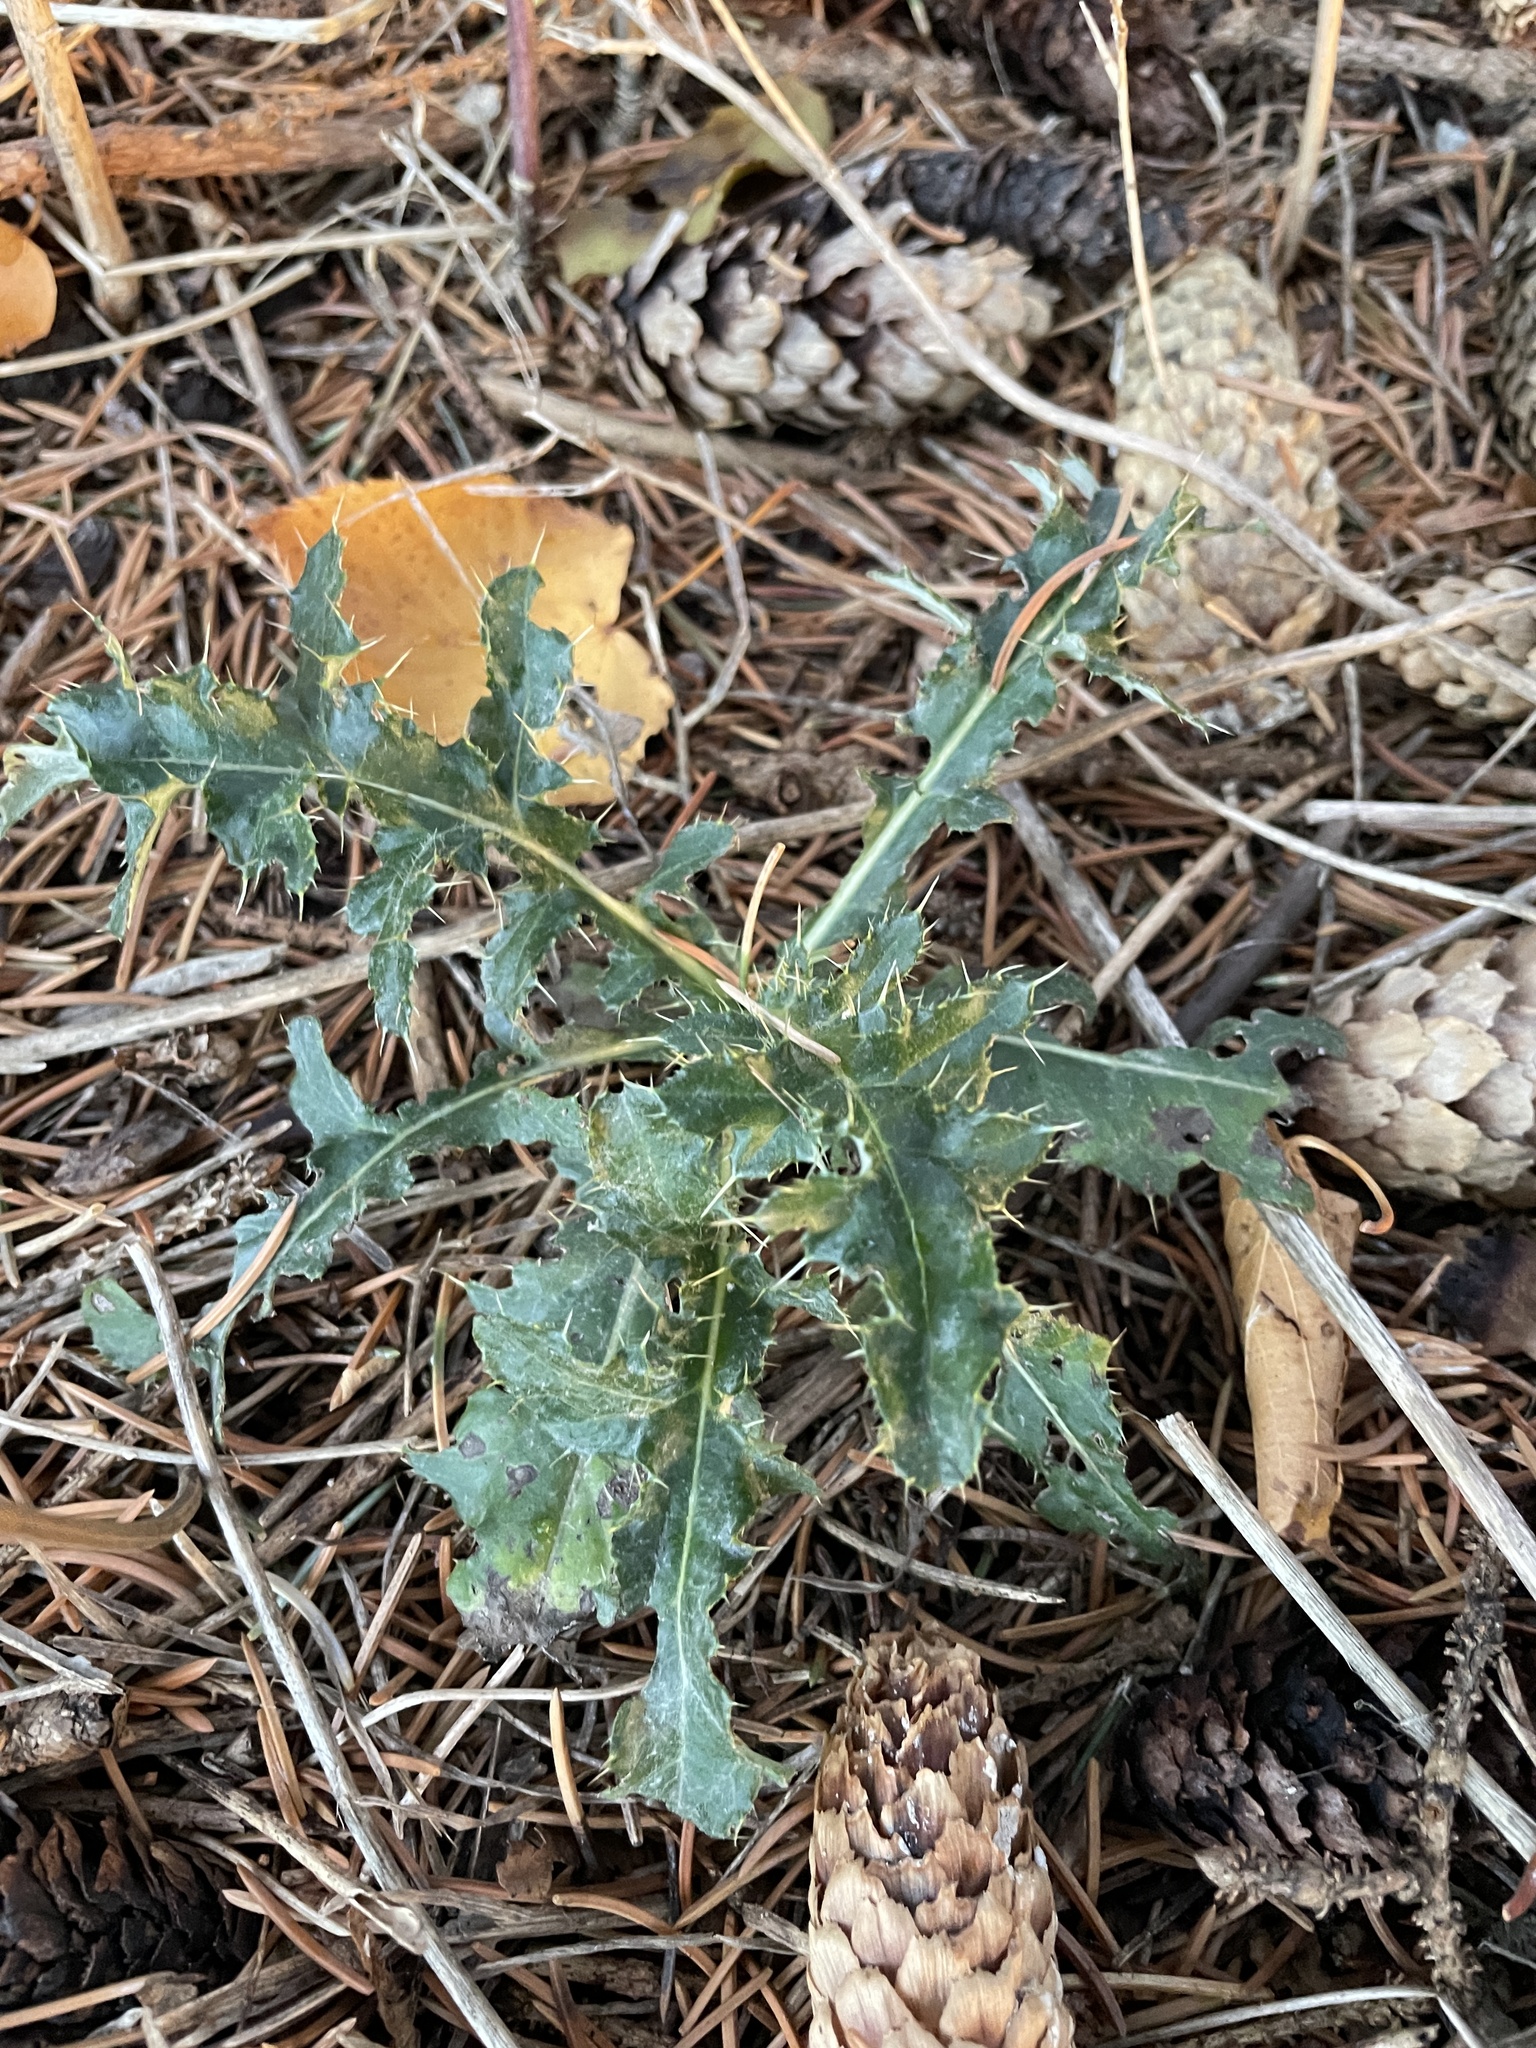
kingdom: Plantae
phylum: Tracheophyta
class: Magnoliopsida
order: Asterales
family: Asteraceae
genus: Cirsium
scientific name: Cirsium arvense
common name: Creeping thistle
